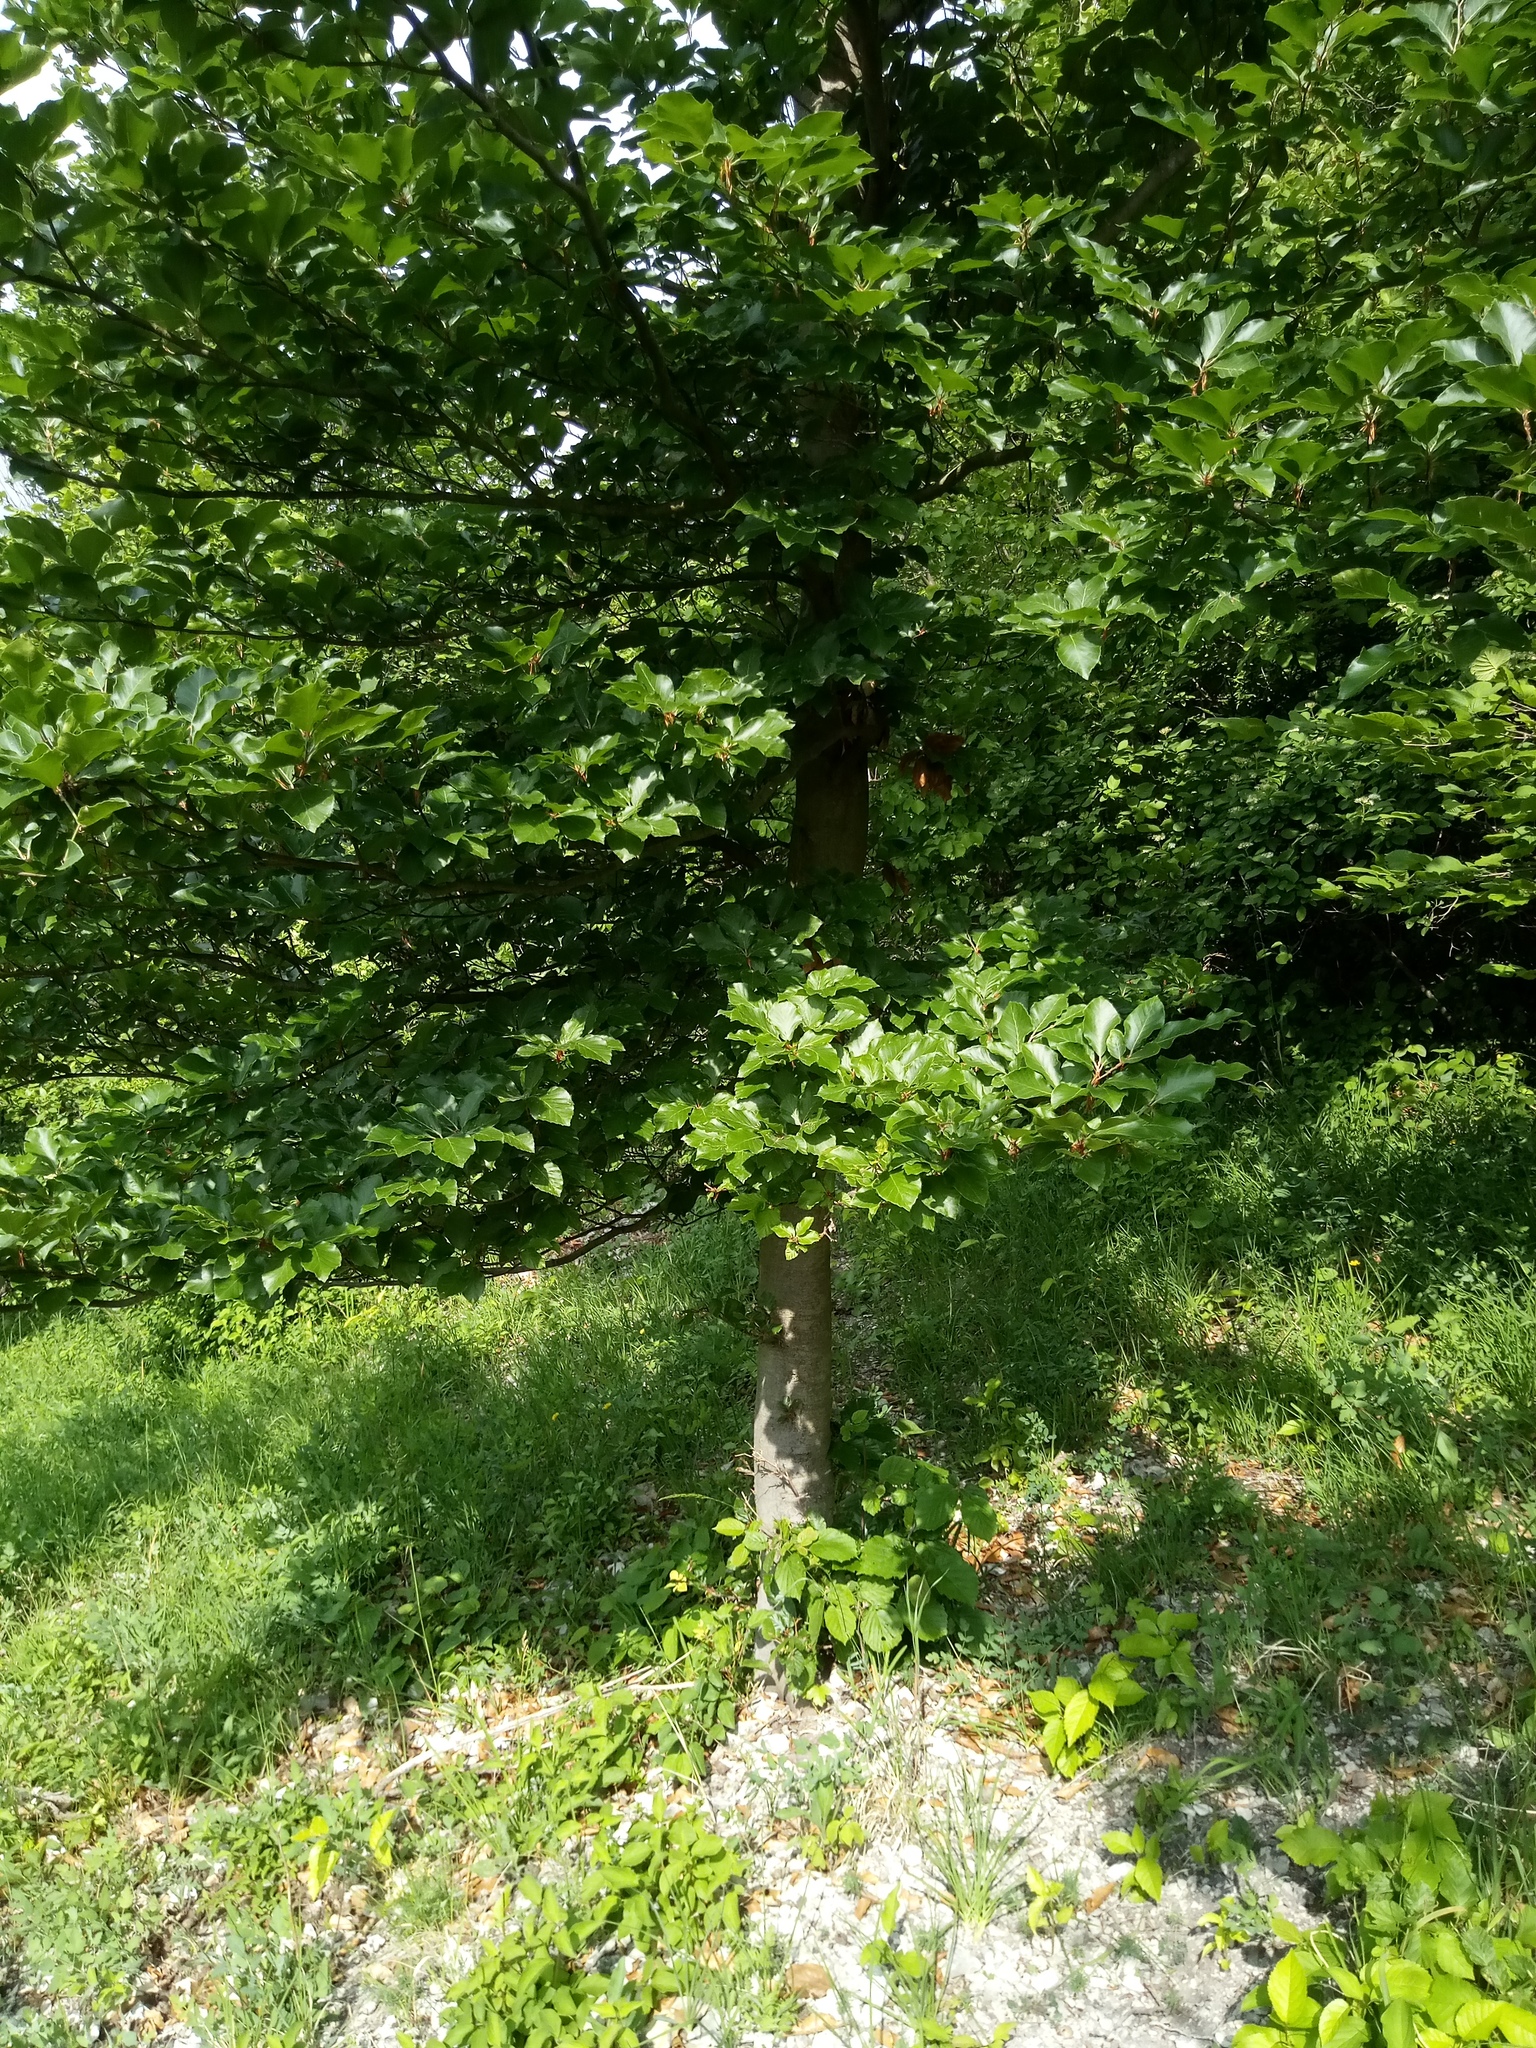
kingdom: Plantae
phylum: Tracheophyta
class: Magnoliopsida
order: Fagales
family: Fagaceae
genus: Fagus
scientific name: Fagus sylvatica
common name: Beech
